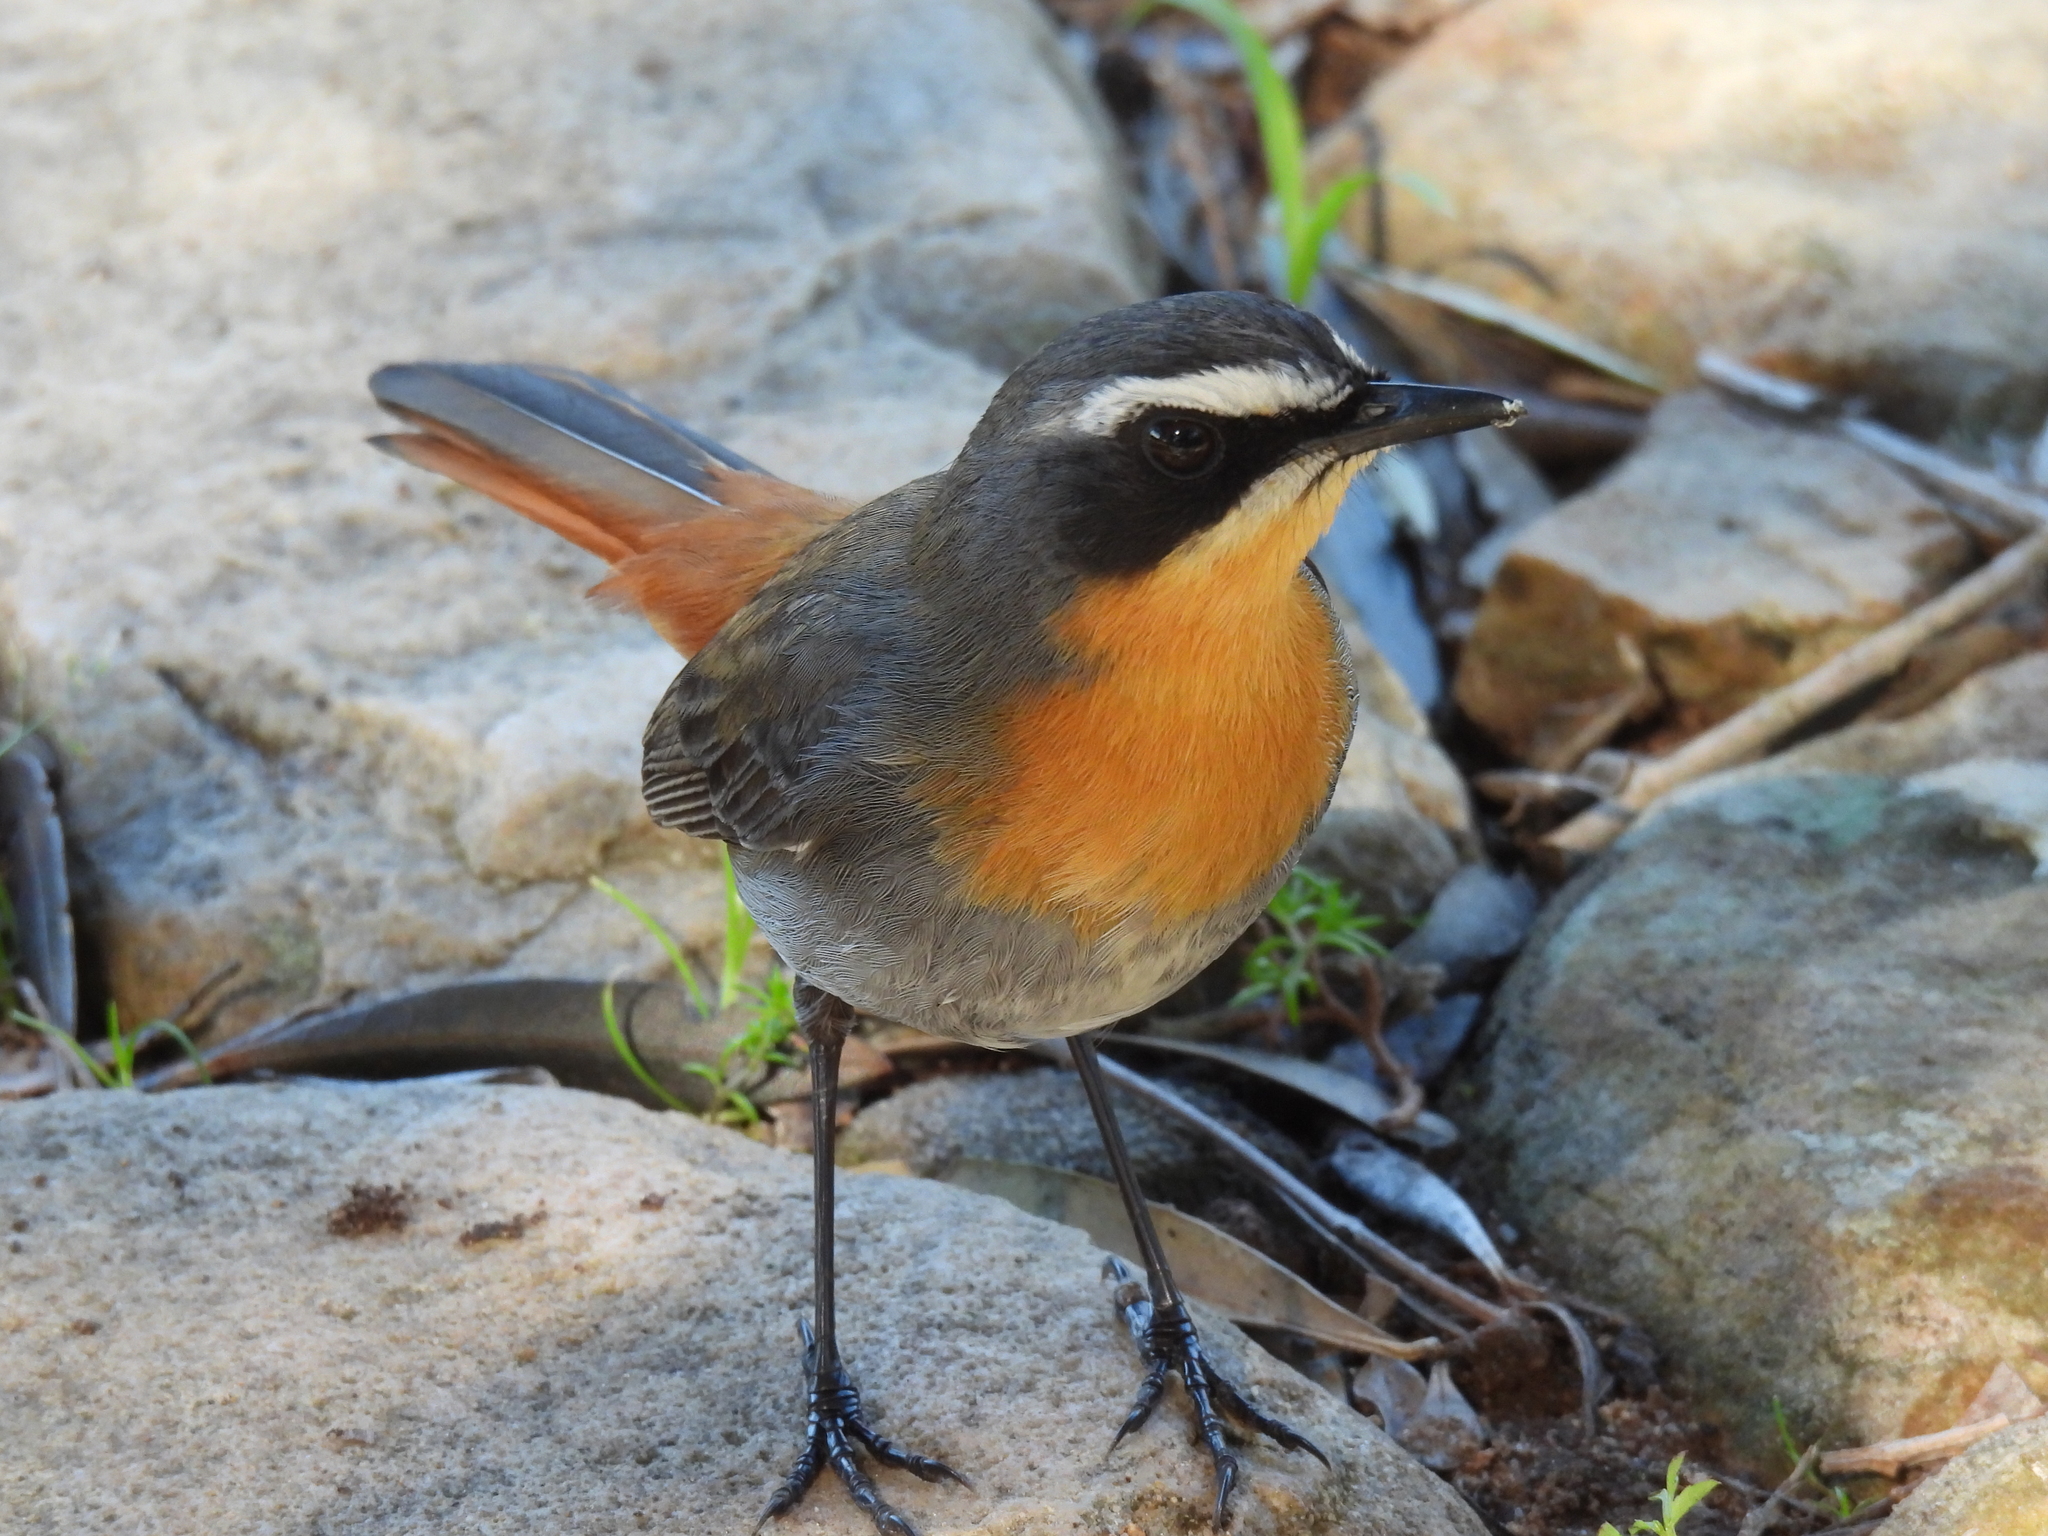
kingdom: Animalia
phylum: Chordata
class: Aves
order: Passeriformes
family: Muscicapidae
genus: Cossypha
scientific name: Cossypha caffra
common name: Cape robin-chat
